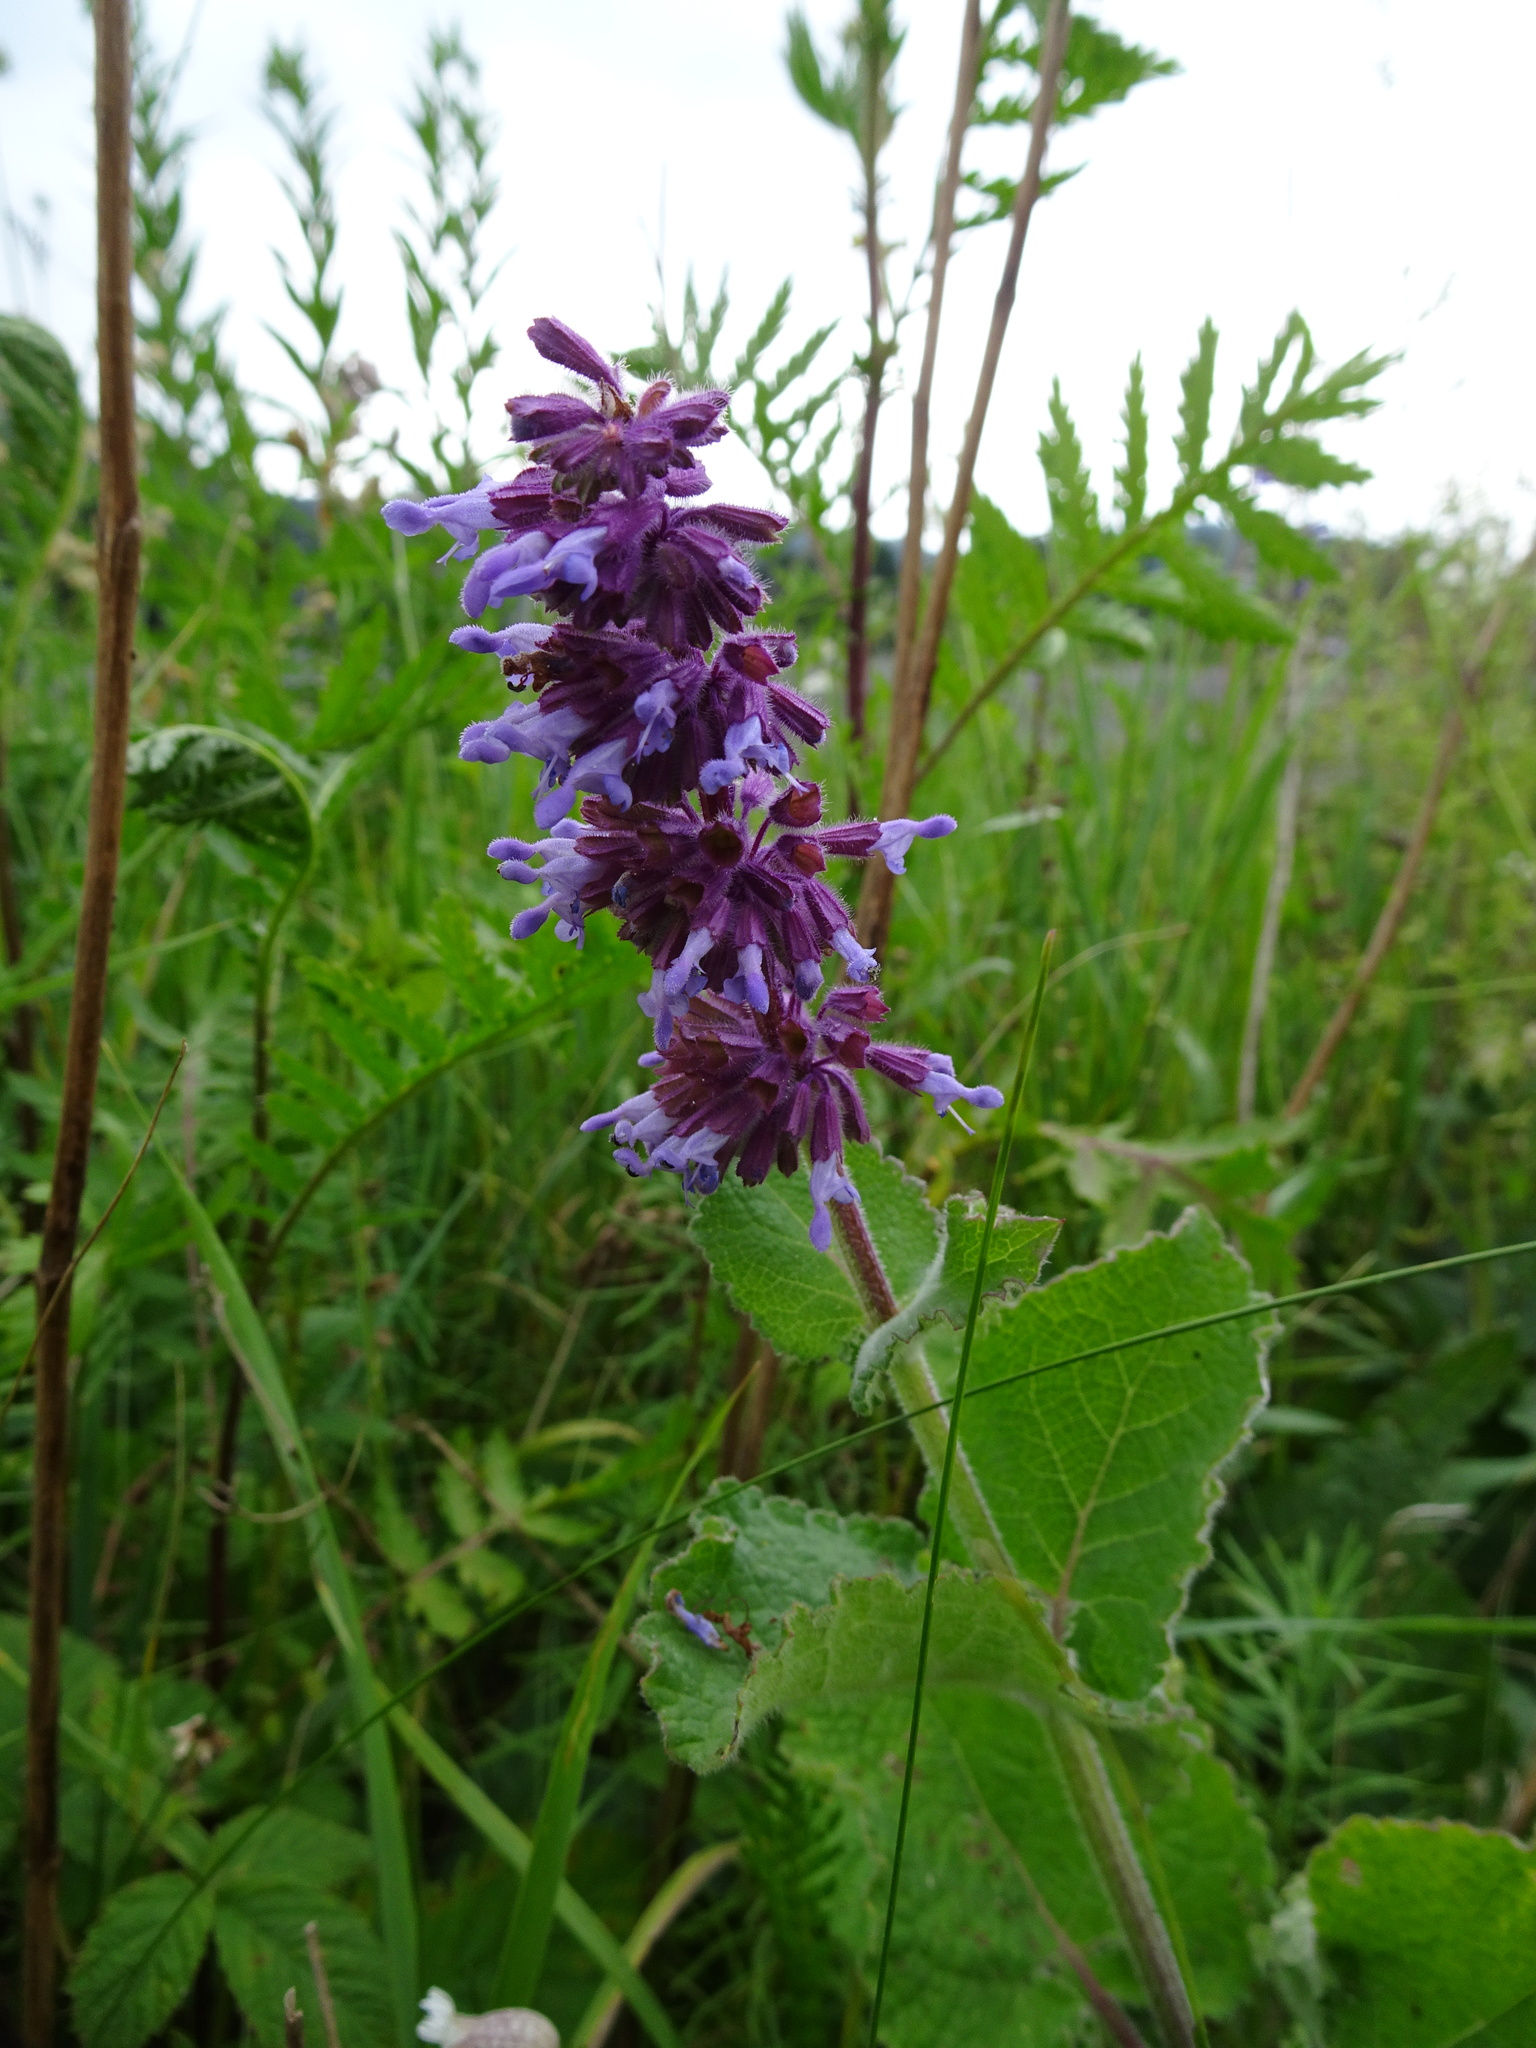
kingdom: Plantae
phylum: Tracheophyta
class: Magnoliopsida
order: Lamiales
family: Lamiaceae
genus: Salvia
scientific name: Salvia verticillata
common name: Whorled clary
